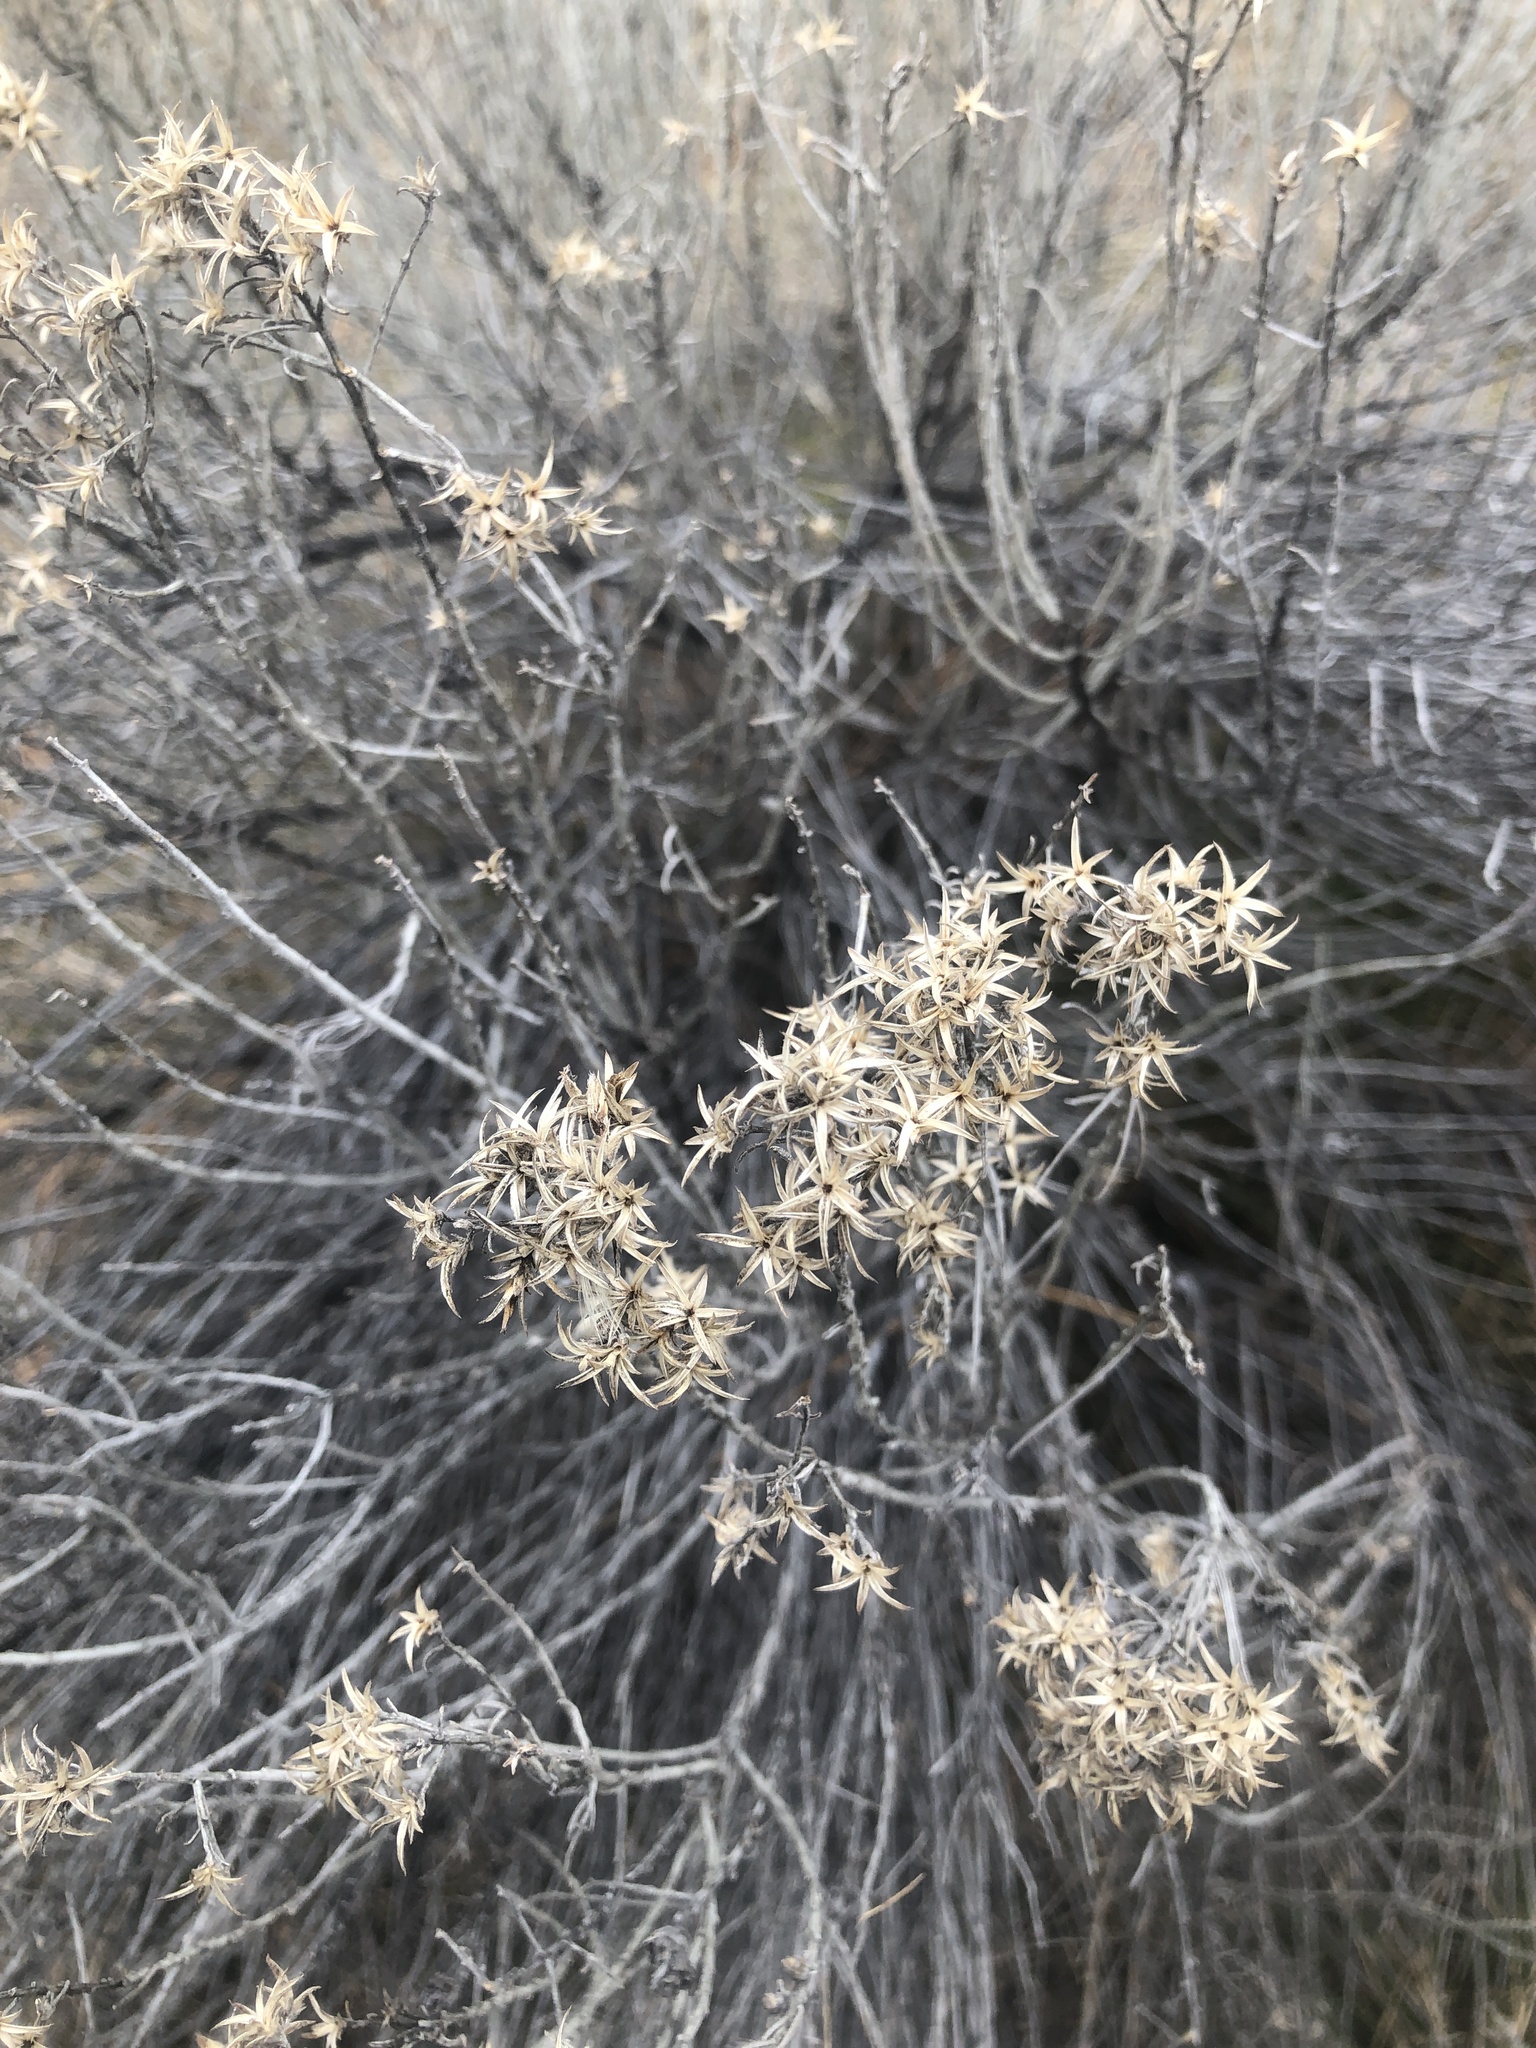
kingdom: Plantae
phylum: Tracheophyta
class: Magnoliopsida
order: Asterales
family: Asteraceae
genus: Ericameria
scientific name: Ericameria nauseosa
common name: Rubber rabbitbrush
